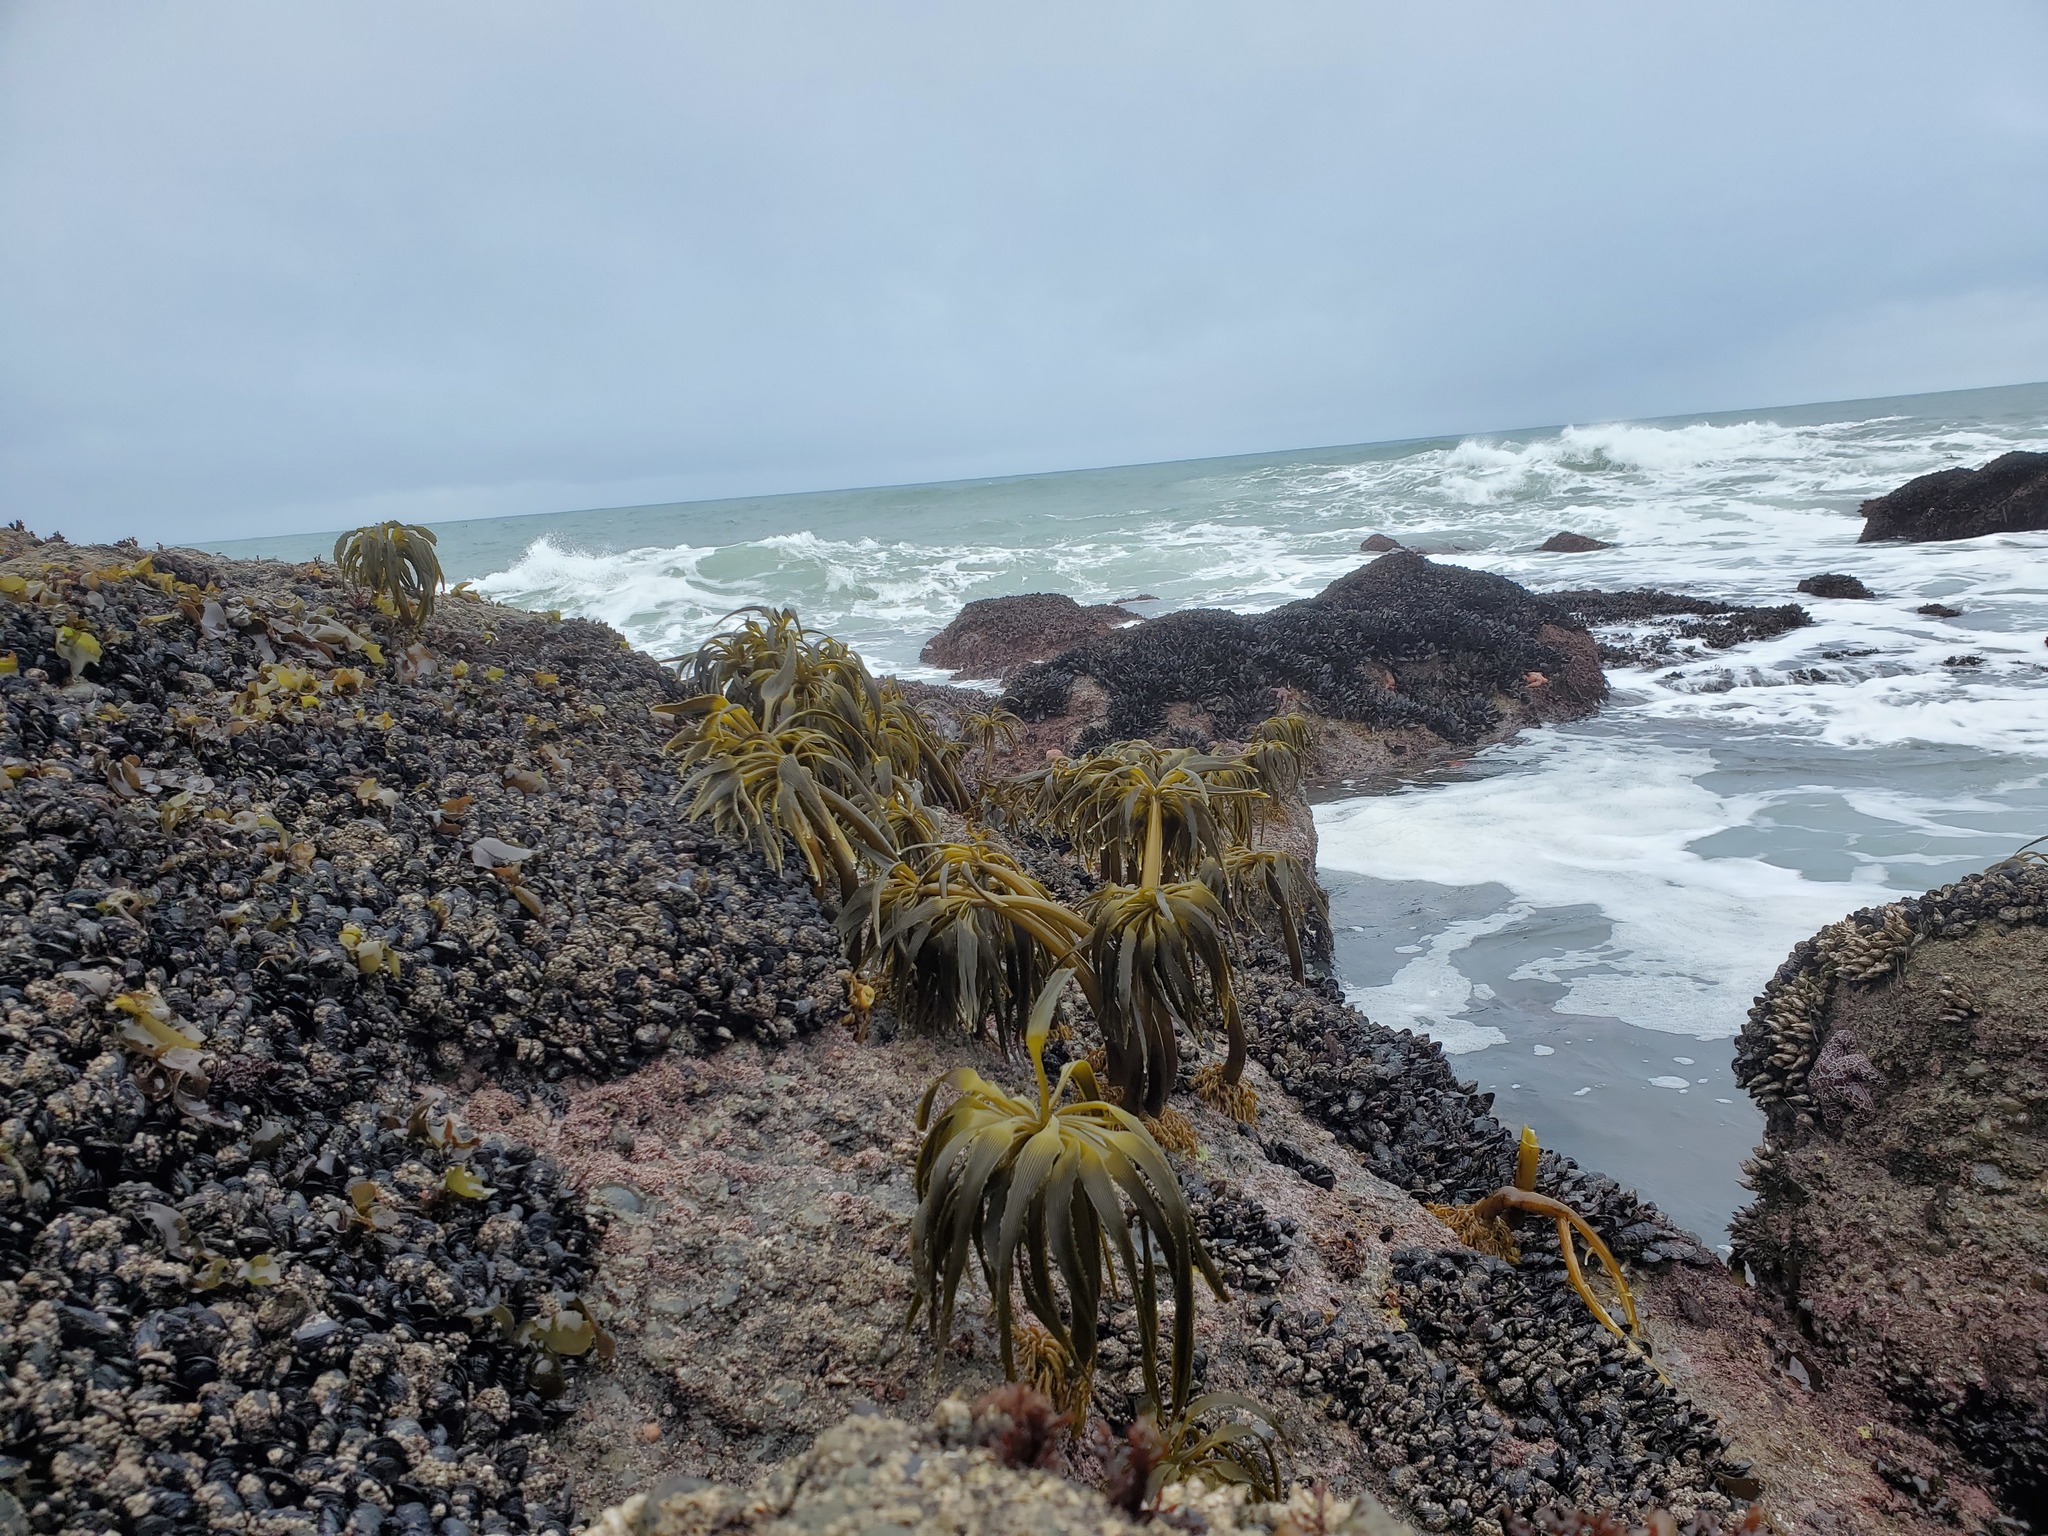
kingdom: Chromista
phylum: Ochrophyta
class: Phaeophyceae
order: Laminariales
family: Laminariaceae
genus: Postelsia
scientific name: Postelsia palmiformis
